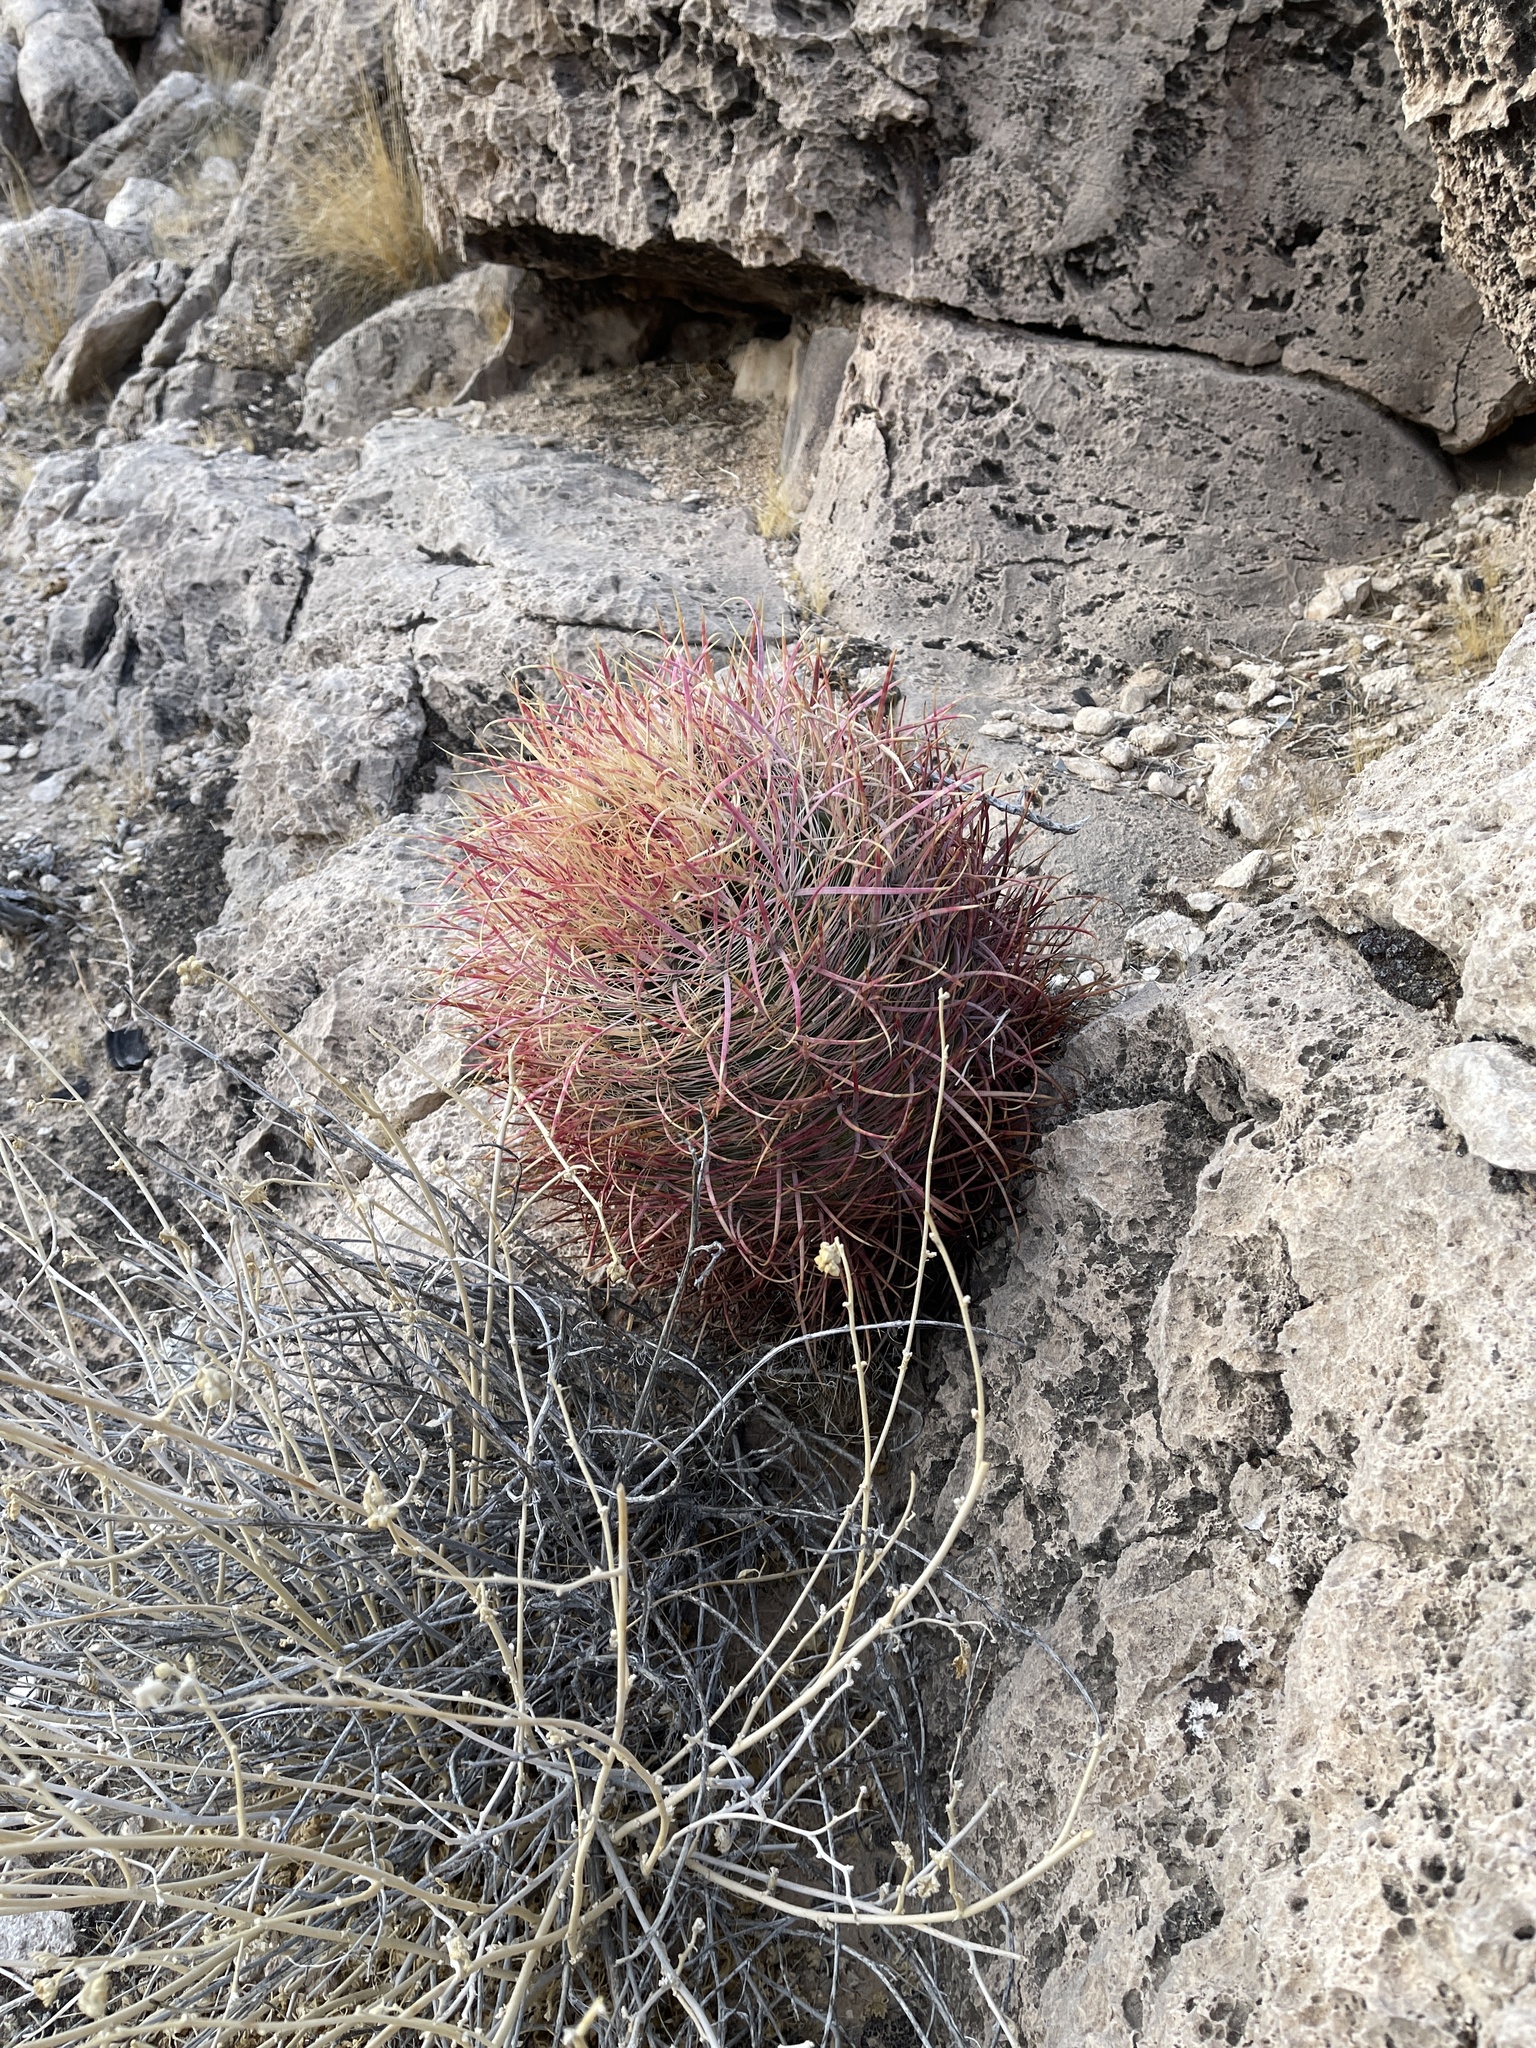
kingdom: Plantae
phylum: Tracheophyta
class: Magnoliopsida
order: Caryophyllales
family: Cactaceae
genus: Ferocactus
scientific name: Ferocactus cylindraceus
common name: California barrel cactus
